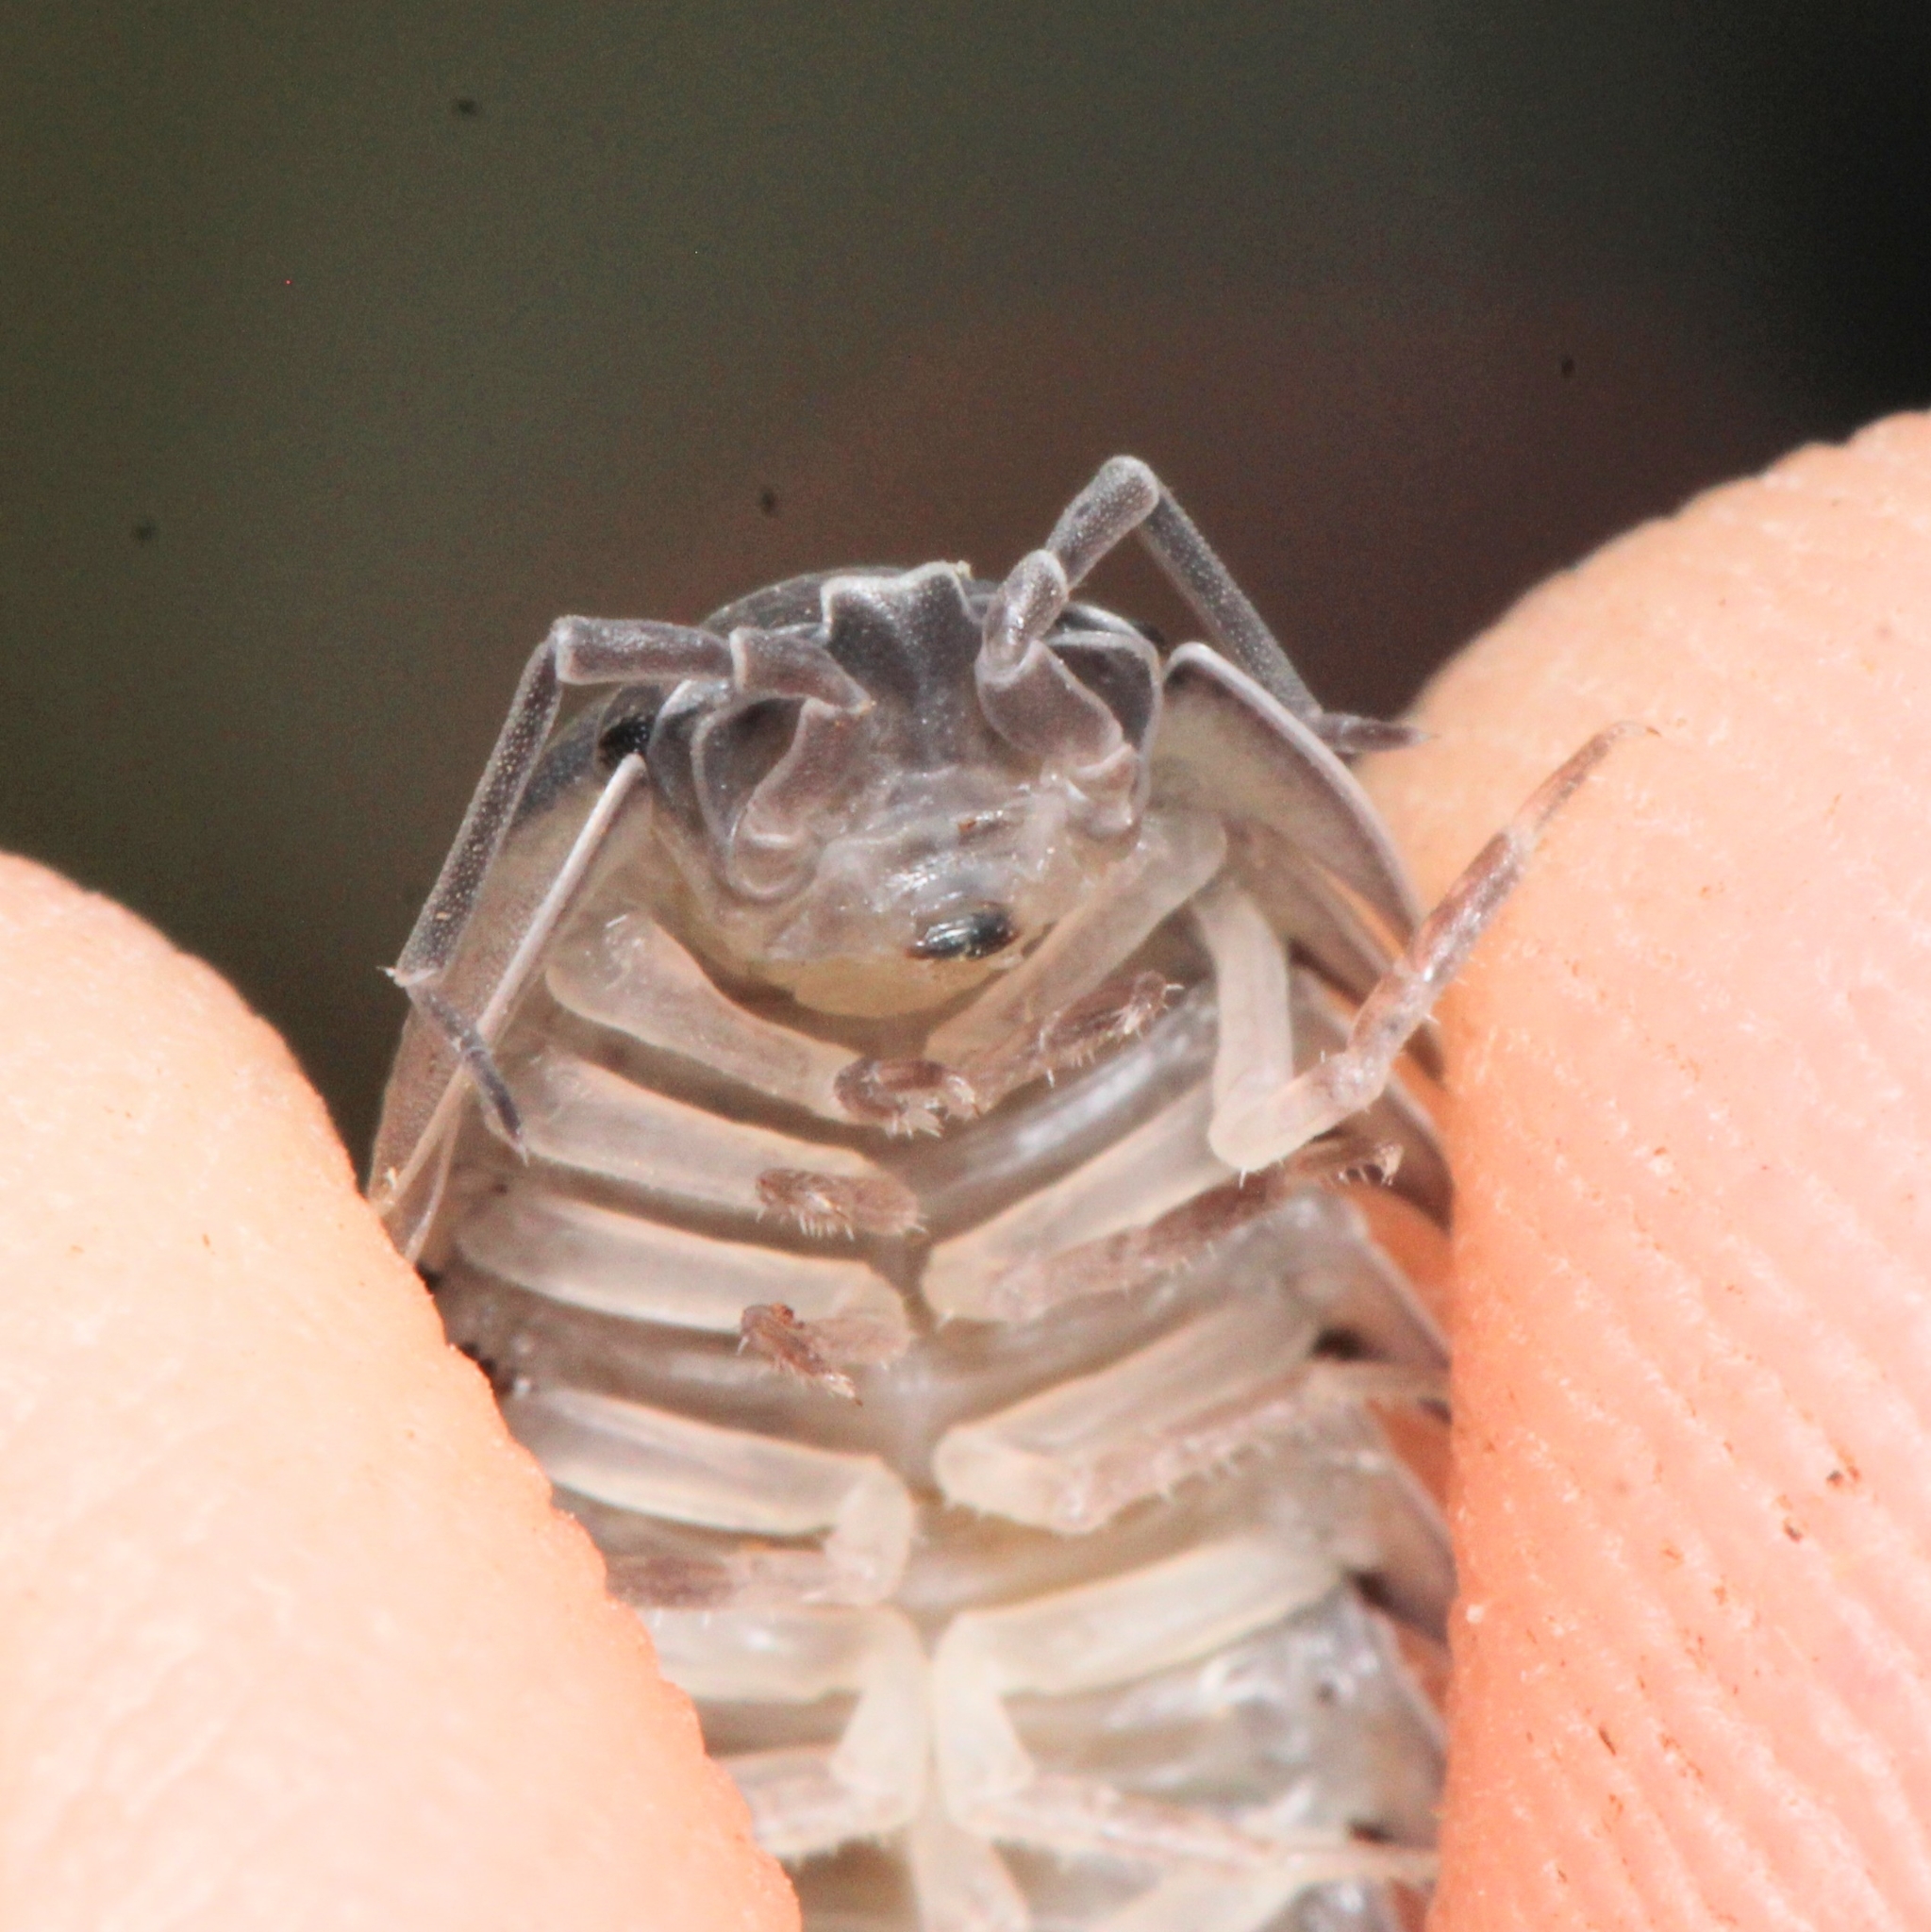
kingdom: Animalia
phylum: Arthropoda
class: Malacostraca
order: Isopoda
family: Armadillidiidae
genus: Armadillidium
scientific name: Armadillidium nasatum
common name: Isopod
